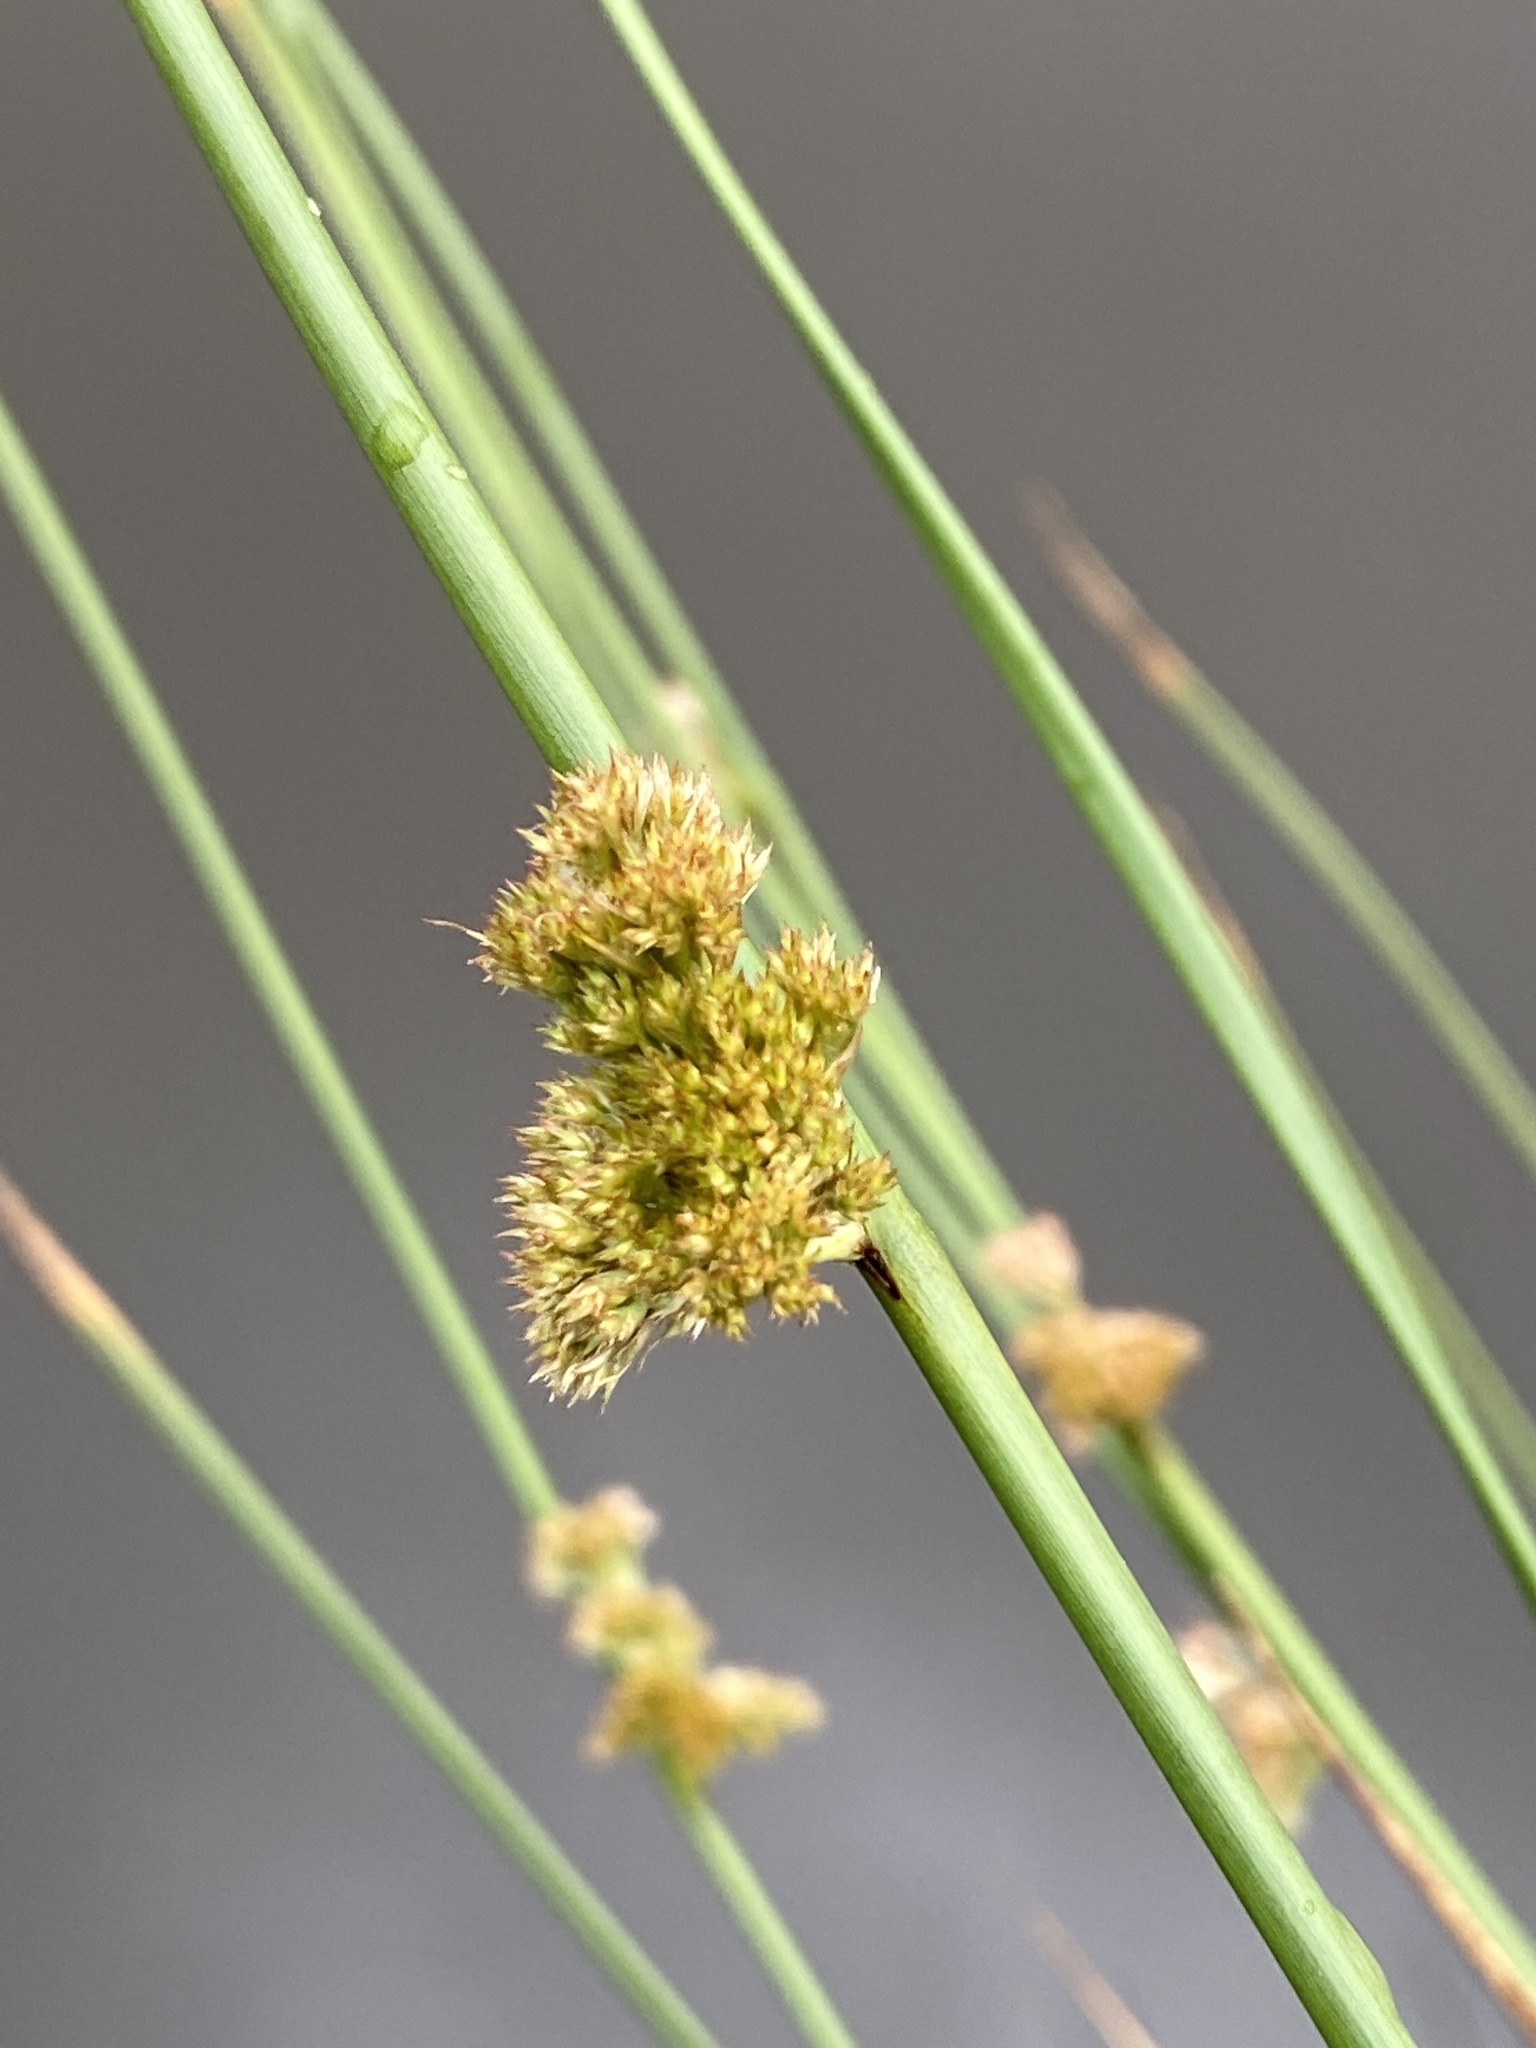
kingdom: Plantae
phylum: Tracheophyta
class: Liliopsida
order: Poales
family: Juncaceae
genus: Juncus
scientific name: Juncus effusus
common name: Soft rush
